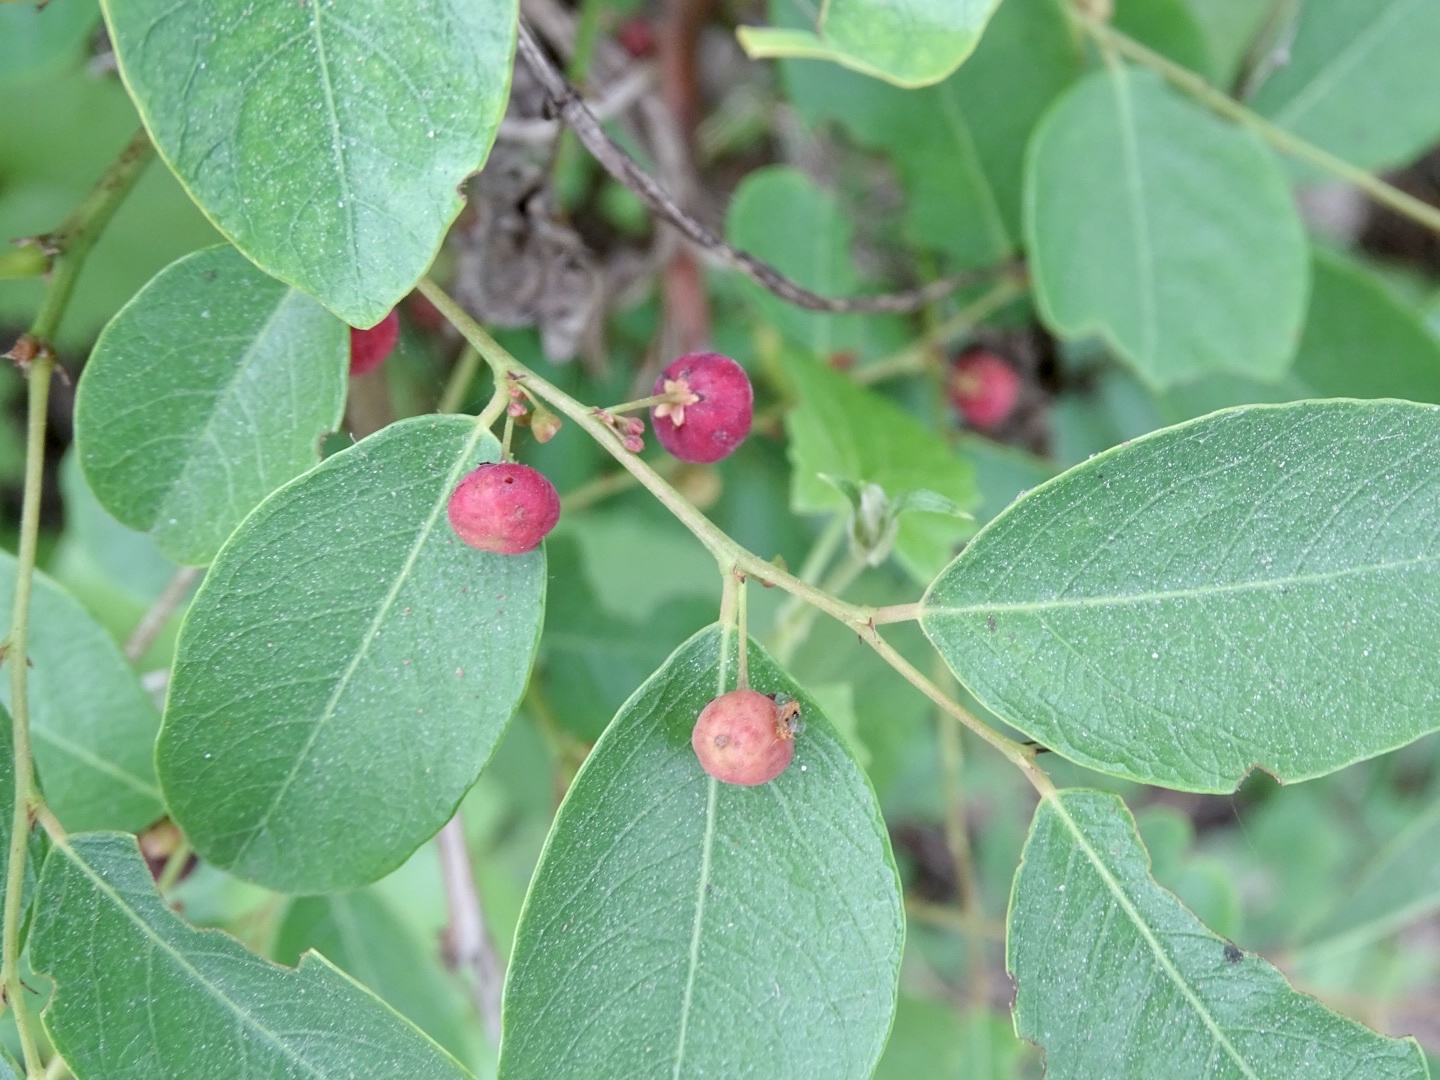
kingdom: Plantae
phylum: Tracheophyta
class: Magnoliopsida
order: Malpighiales
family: Phyllanthaceae
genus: Phyllanthus
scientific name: Phyllanthus reticulatus
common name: Potato bush
